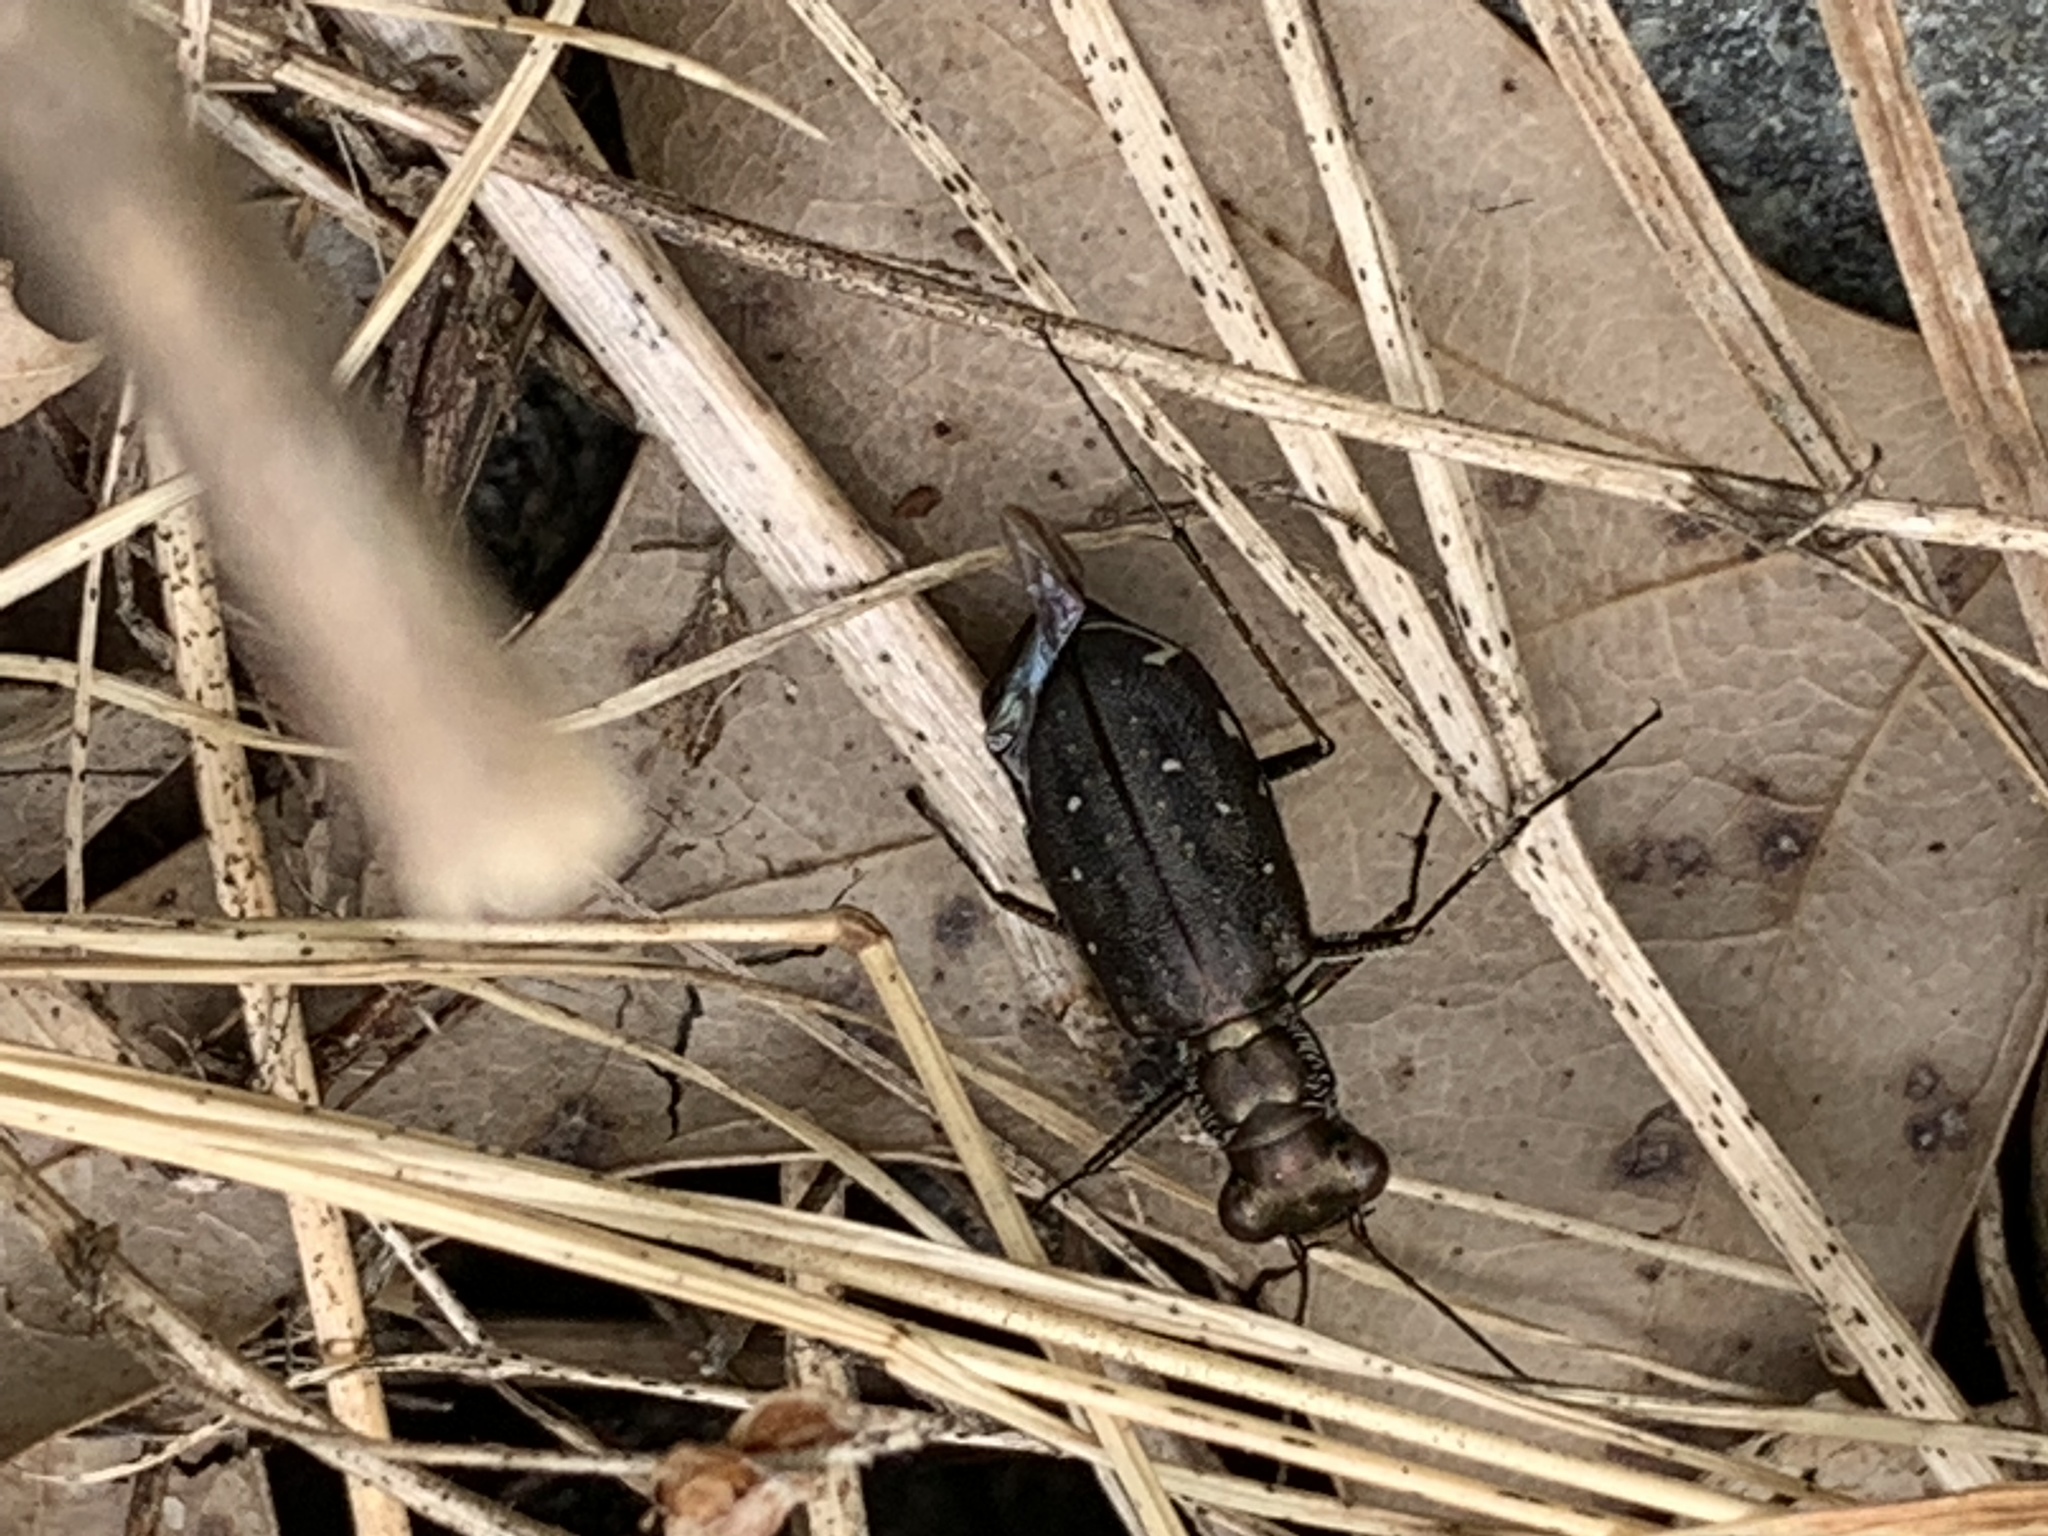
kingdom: Animalia
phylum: Arthropoda
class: Insecta
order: Coleoptera
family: Carabidae
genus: Cicindela
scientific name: Cicindela punctulata
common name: Punctured tiger beetle
